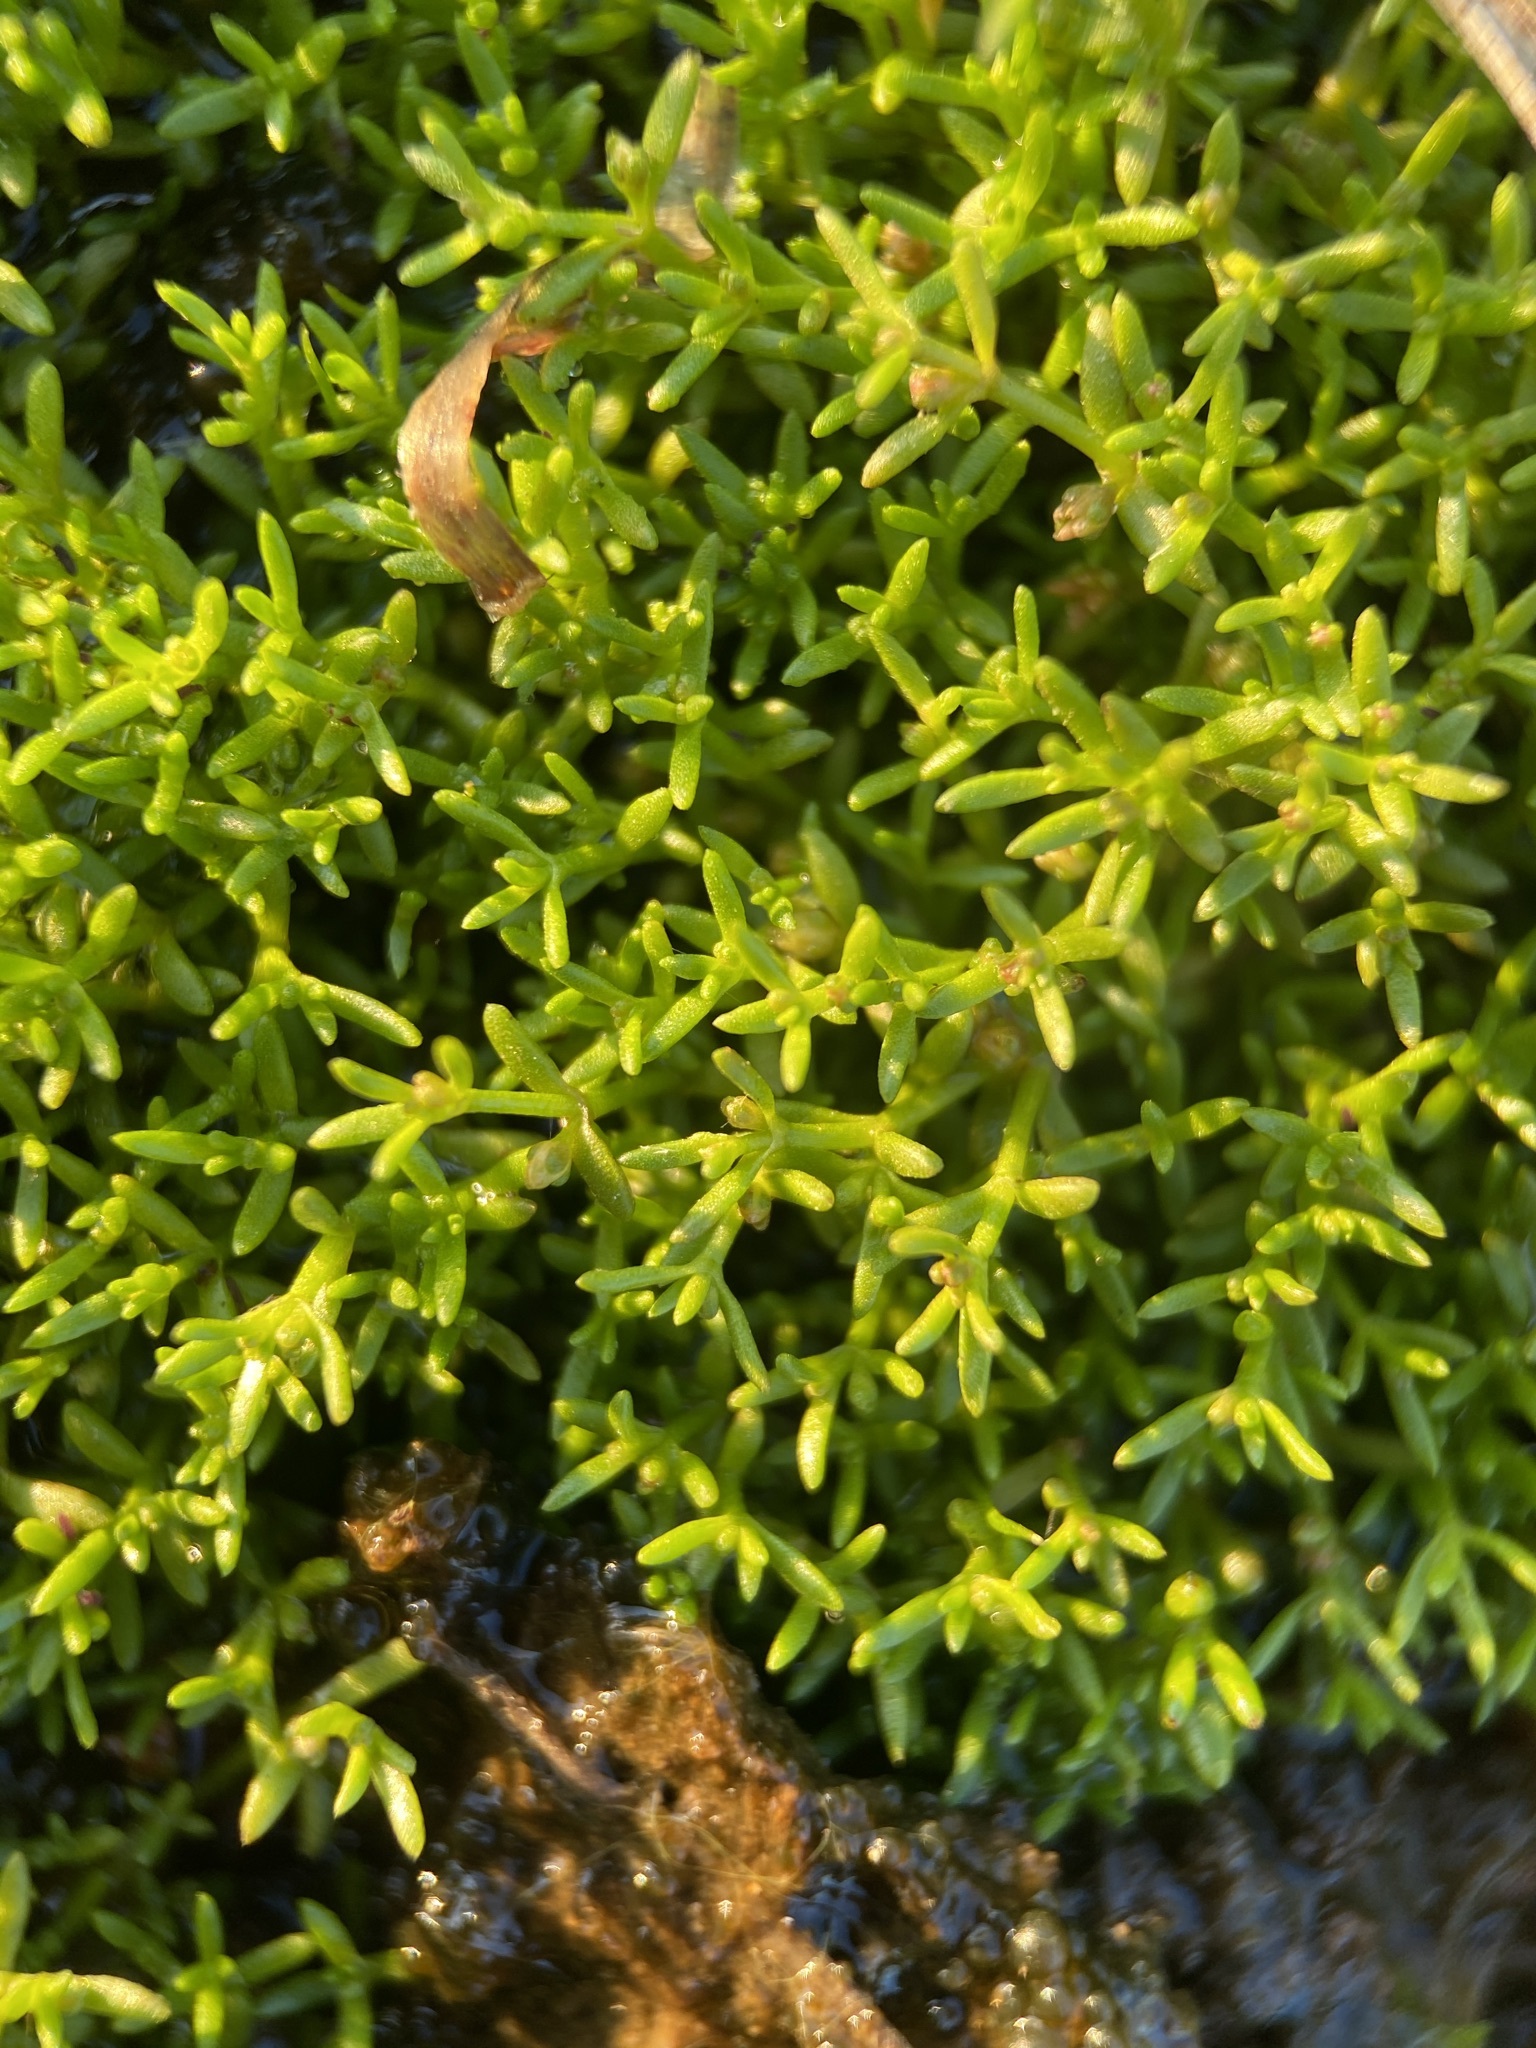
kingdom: Plantae
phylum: Tracheophyta
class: Magnoliopsida
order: Saxifragales
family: Crassulaceae
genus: Crassula
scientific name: Crassula aquatica
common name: Pigmyweed
